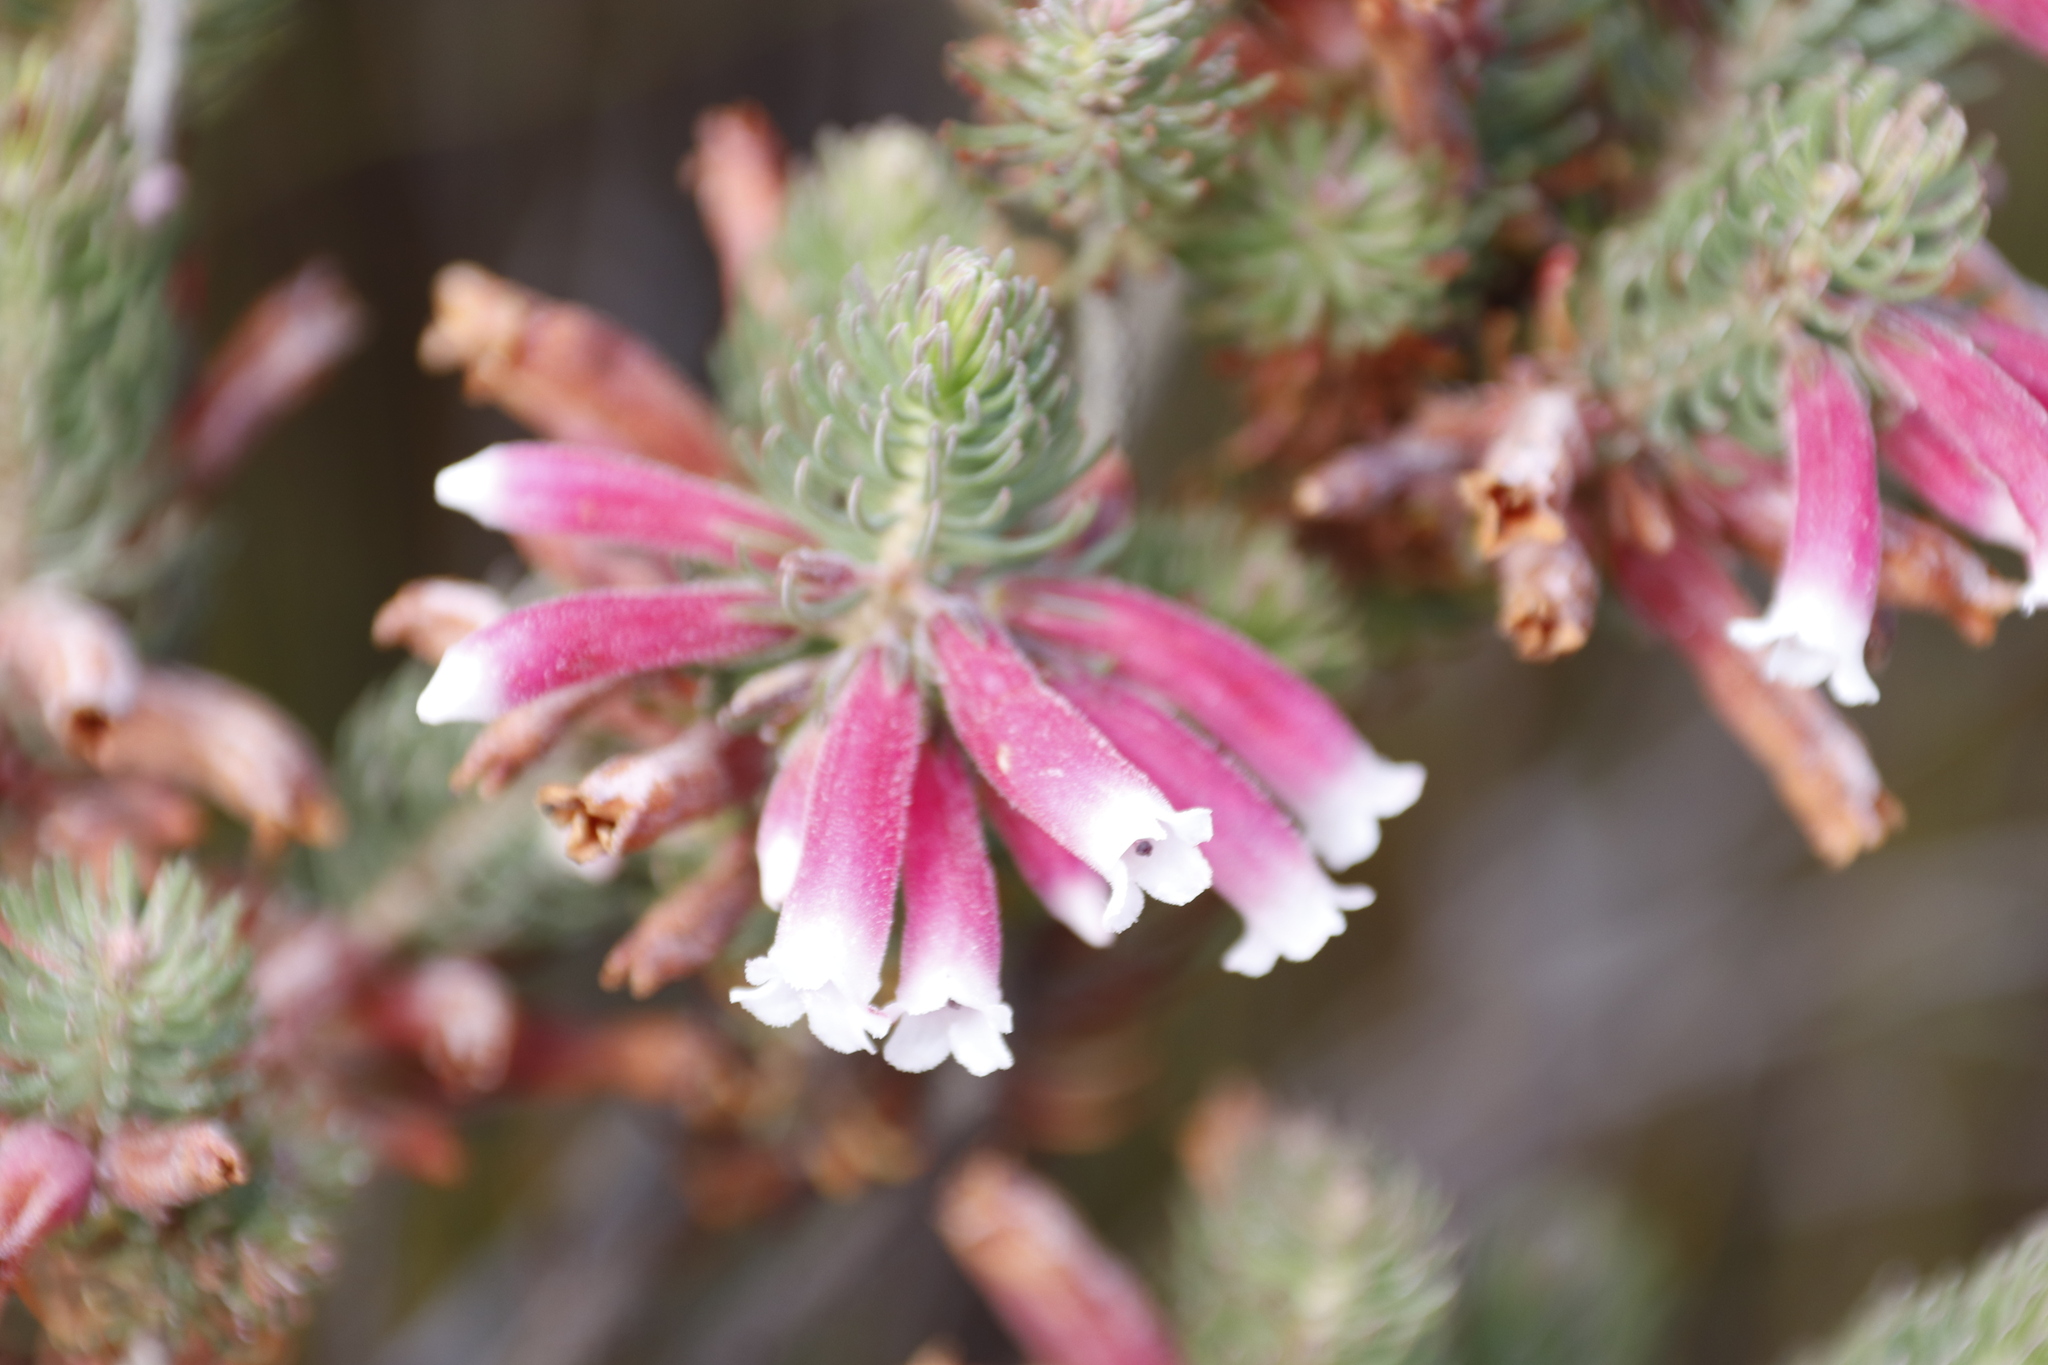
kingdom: Plantae
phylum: Tracheophyta
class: Magnoliopsida
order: Ericales
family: Ericaceae
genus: Erica
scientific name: Erica viscaria
